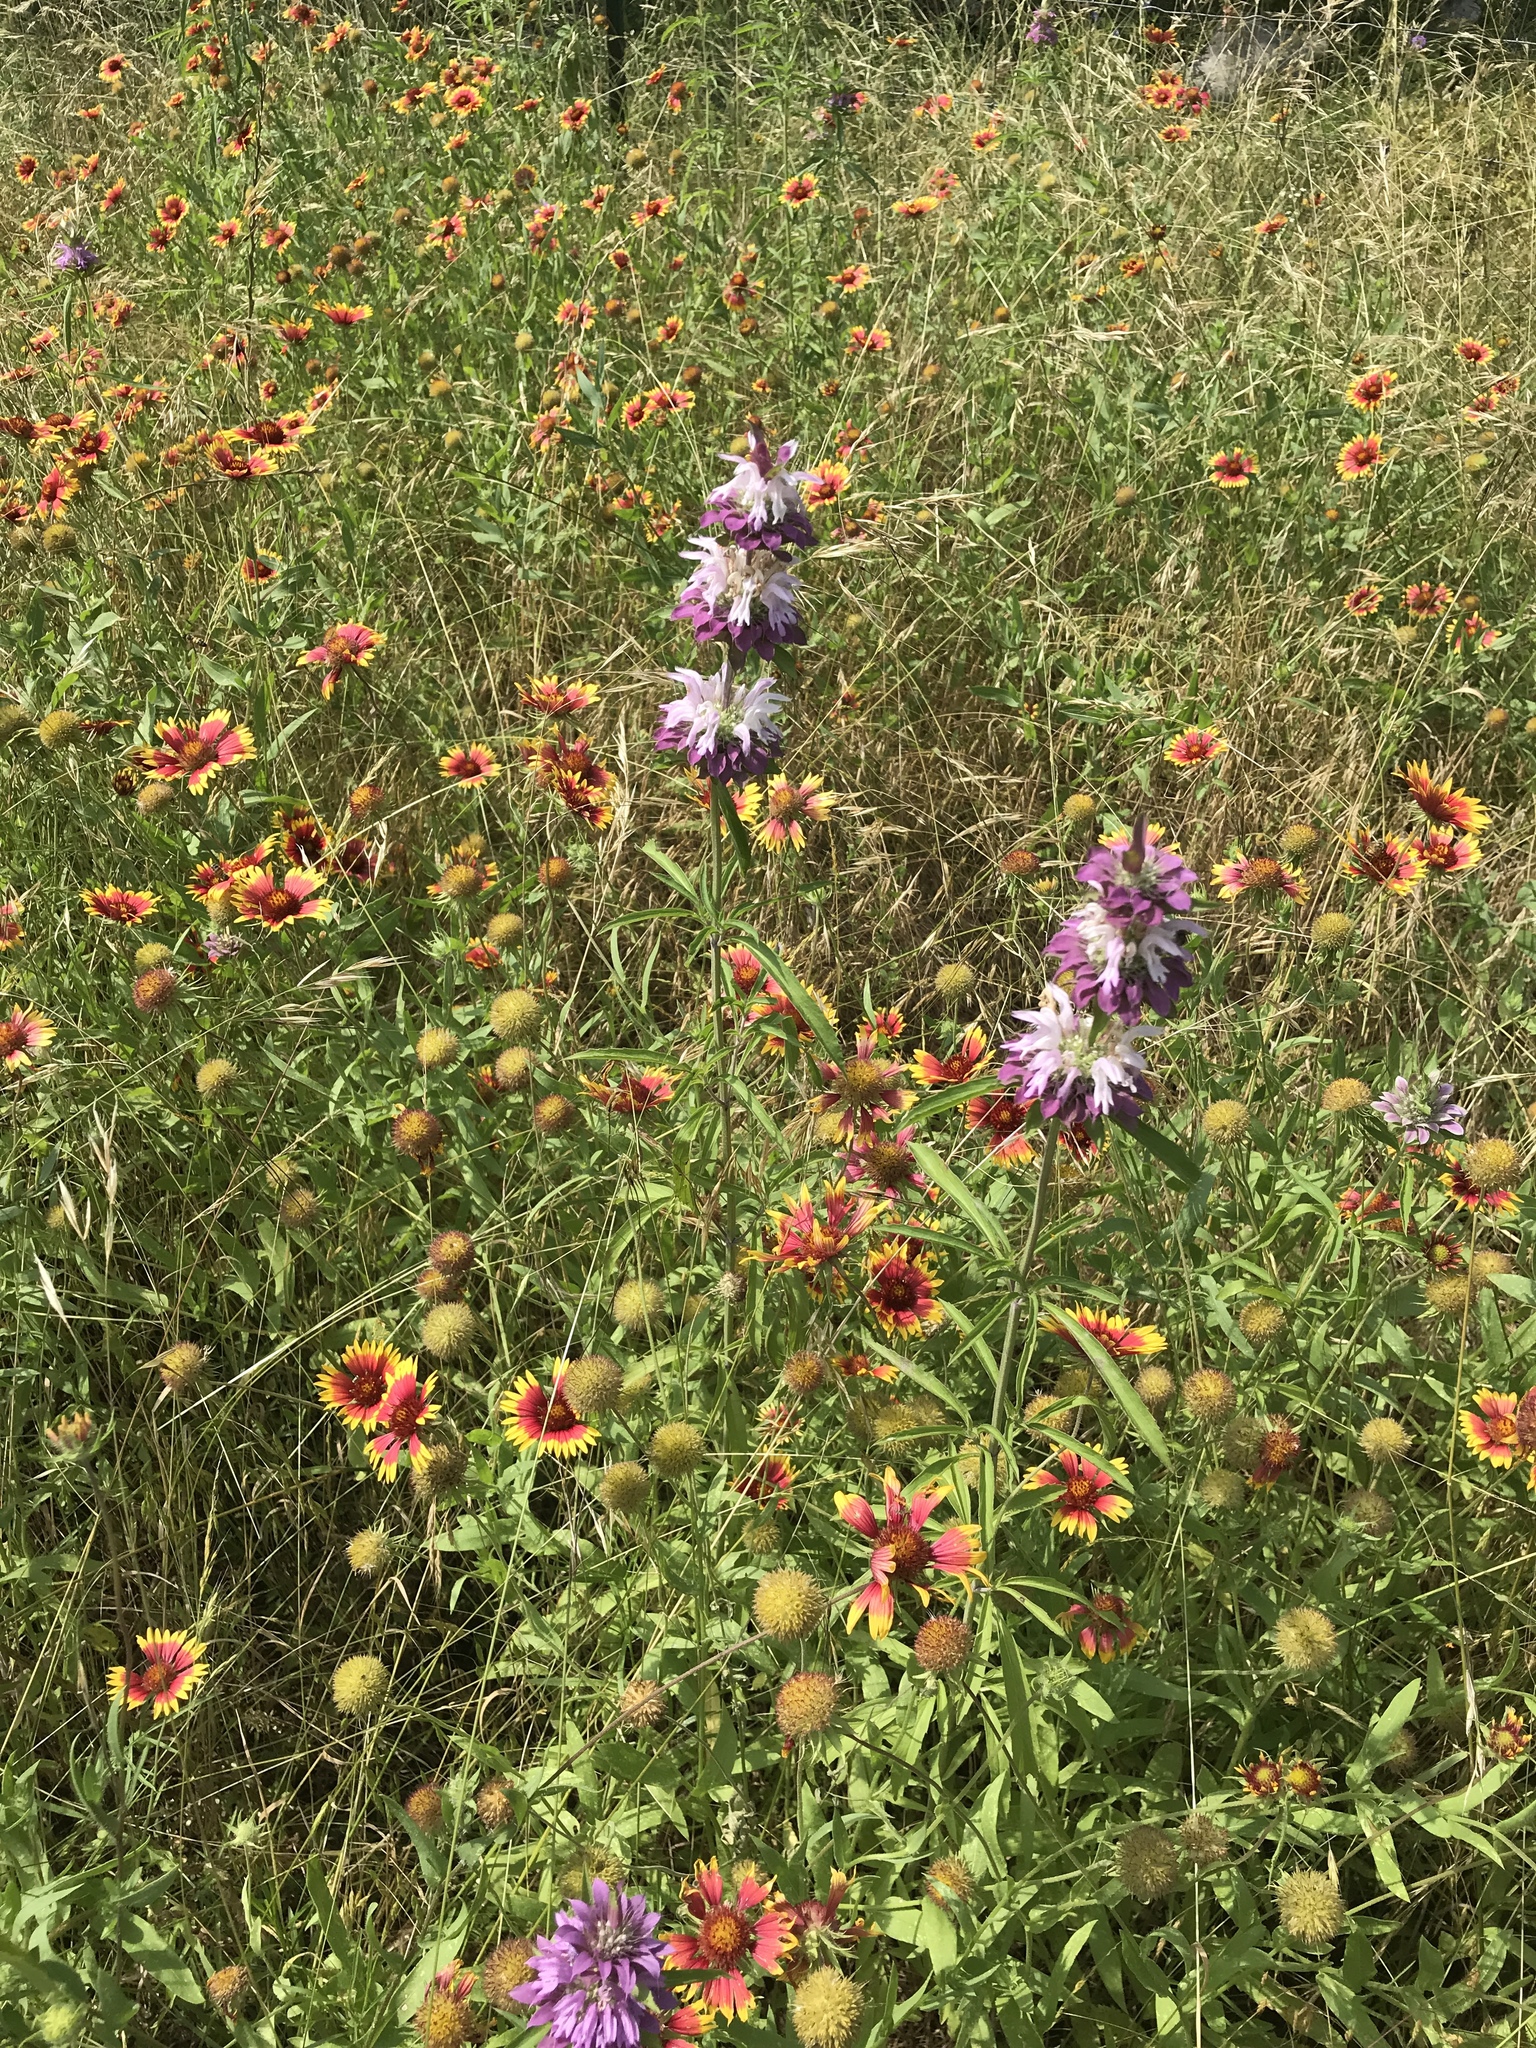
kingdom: Plantae
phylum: Tracheophyta
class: Magnoliopsida
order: Lamiales
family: Lamiaceae
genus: Monarda
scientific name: Monarda citriodora
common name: Lemon beebalm
